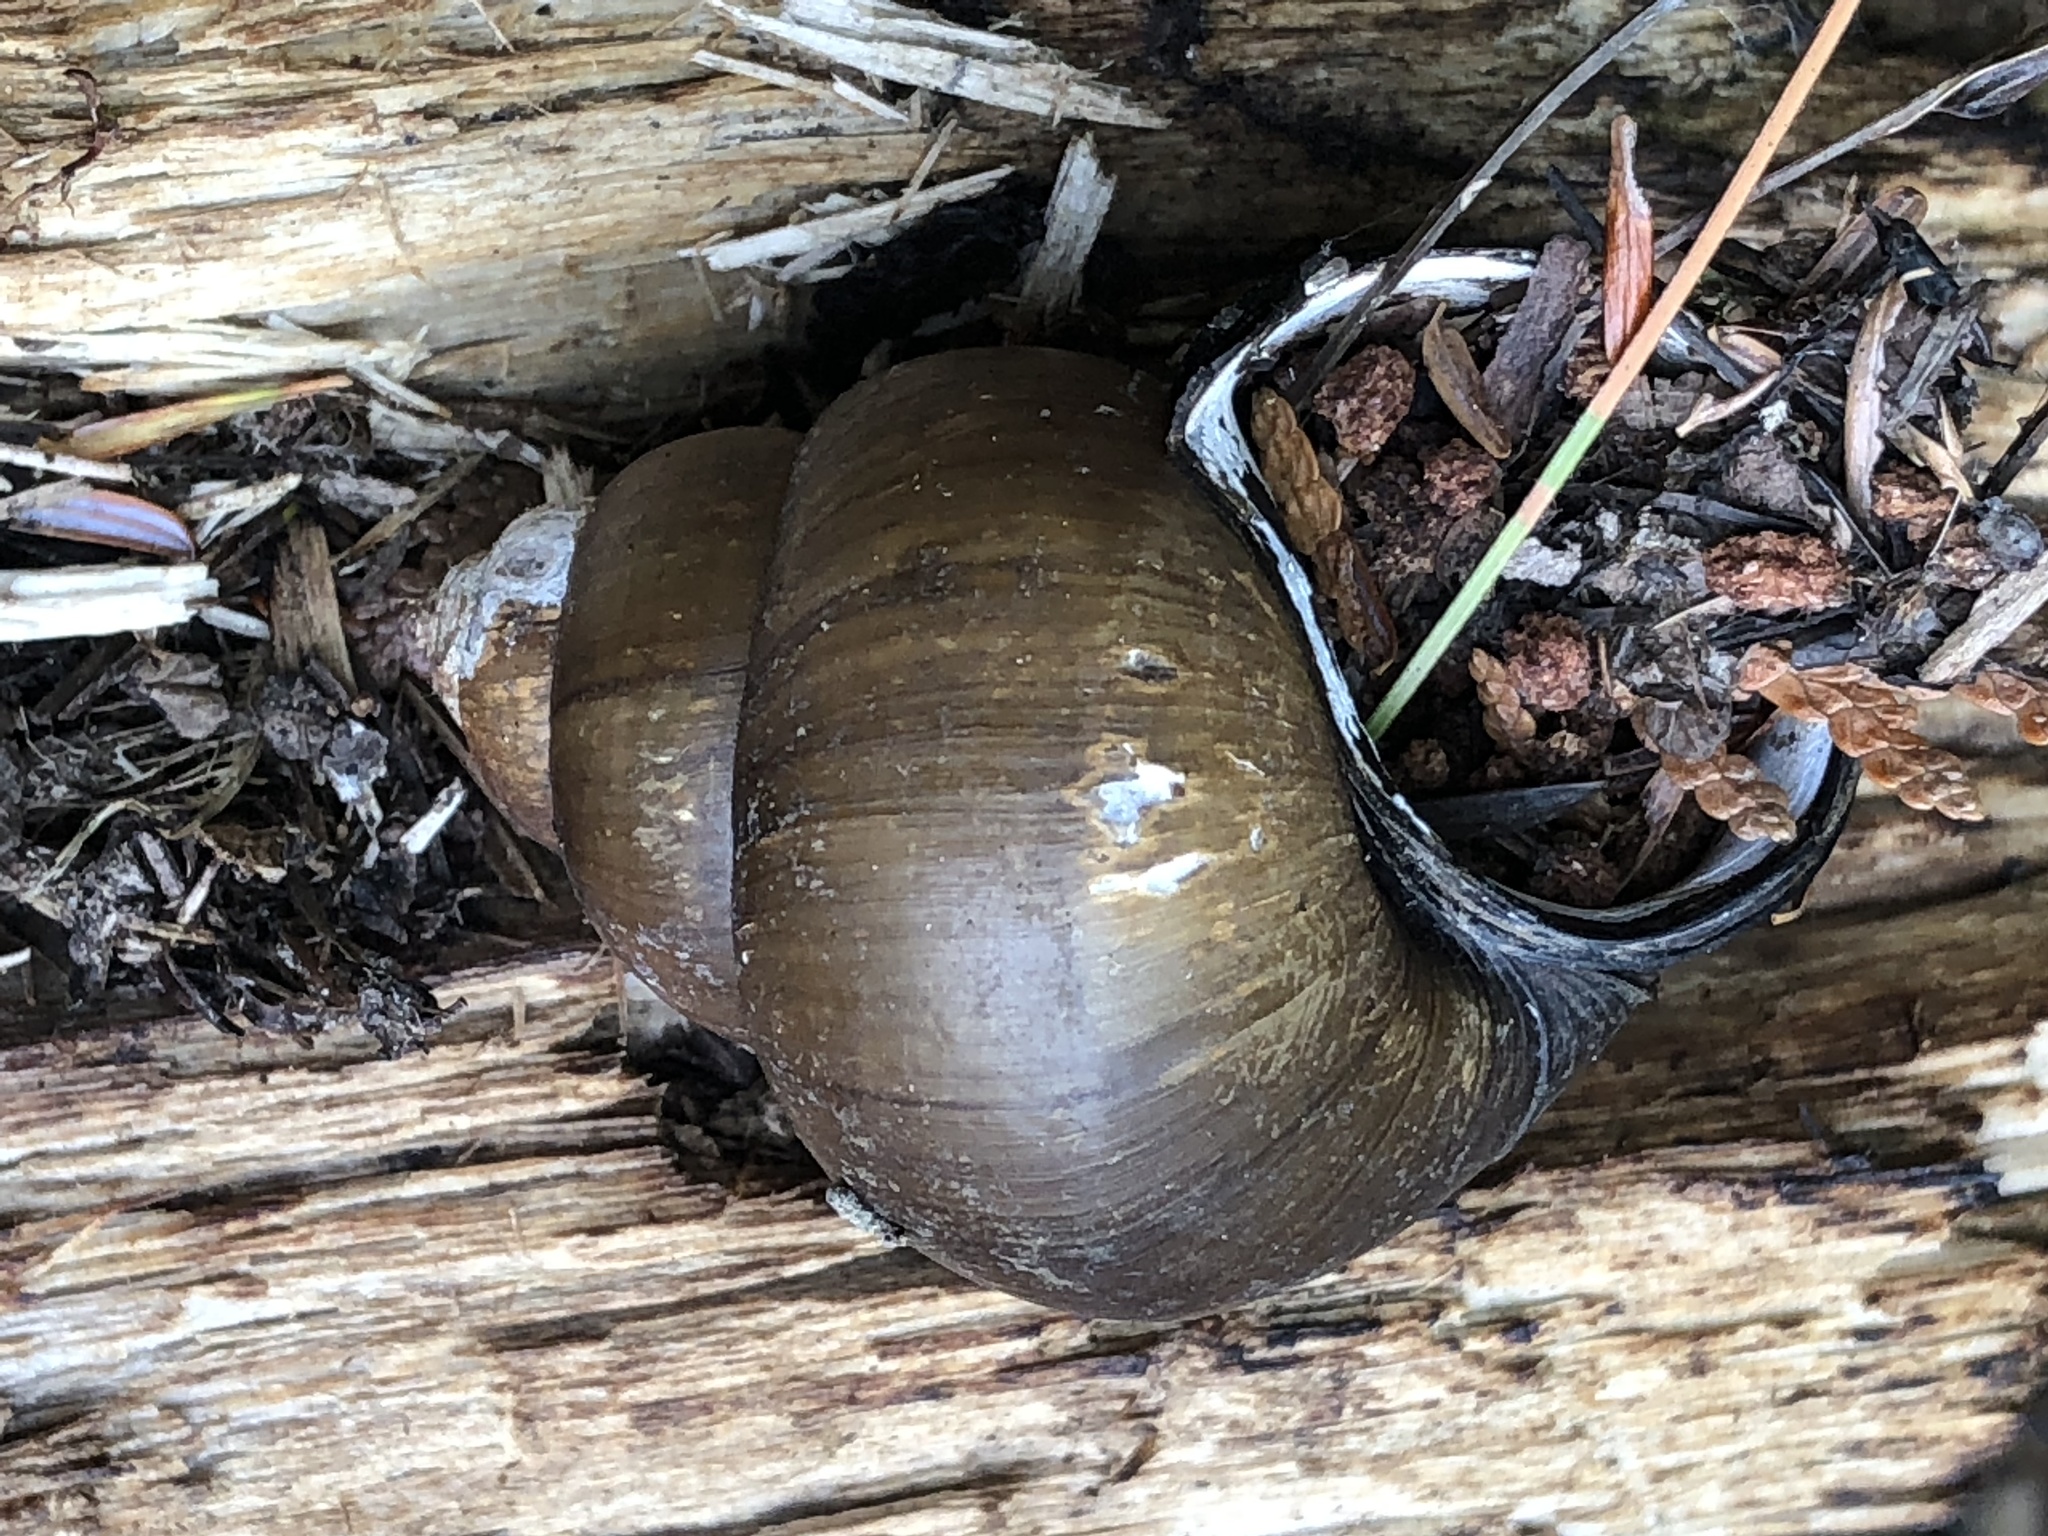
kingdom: Animalia
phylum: Mollusca
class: Gastropoda
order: Architaenioglossa
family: Viviparidae
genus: Cipangopaludina
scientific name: Cipangopaludina chinensis
